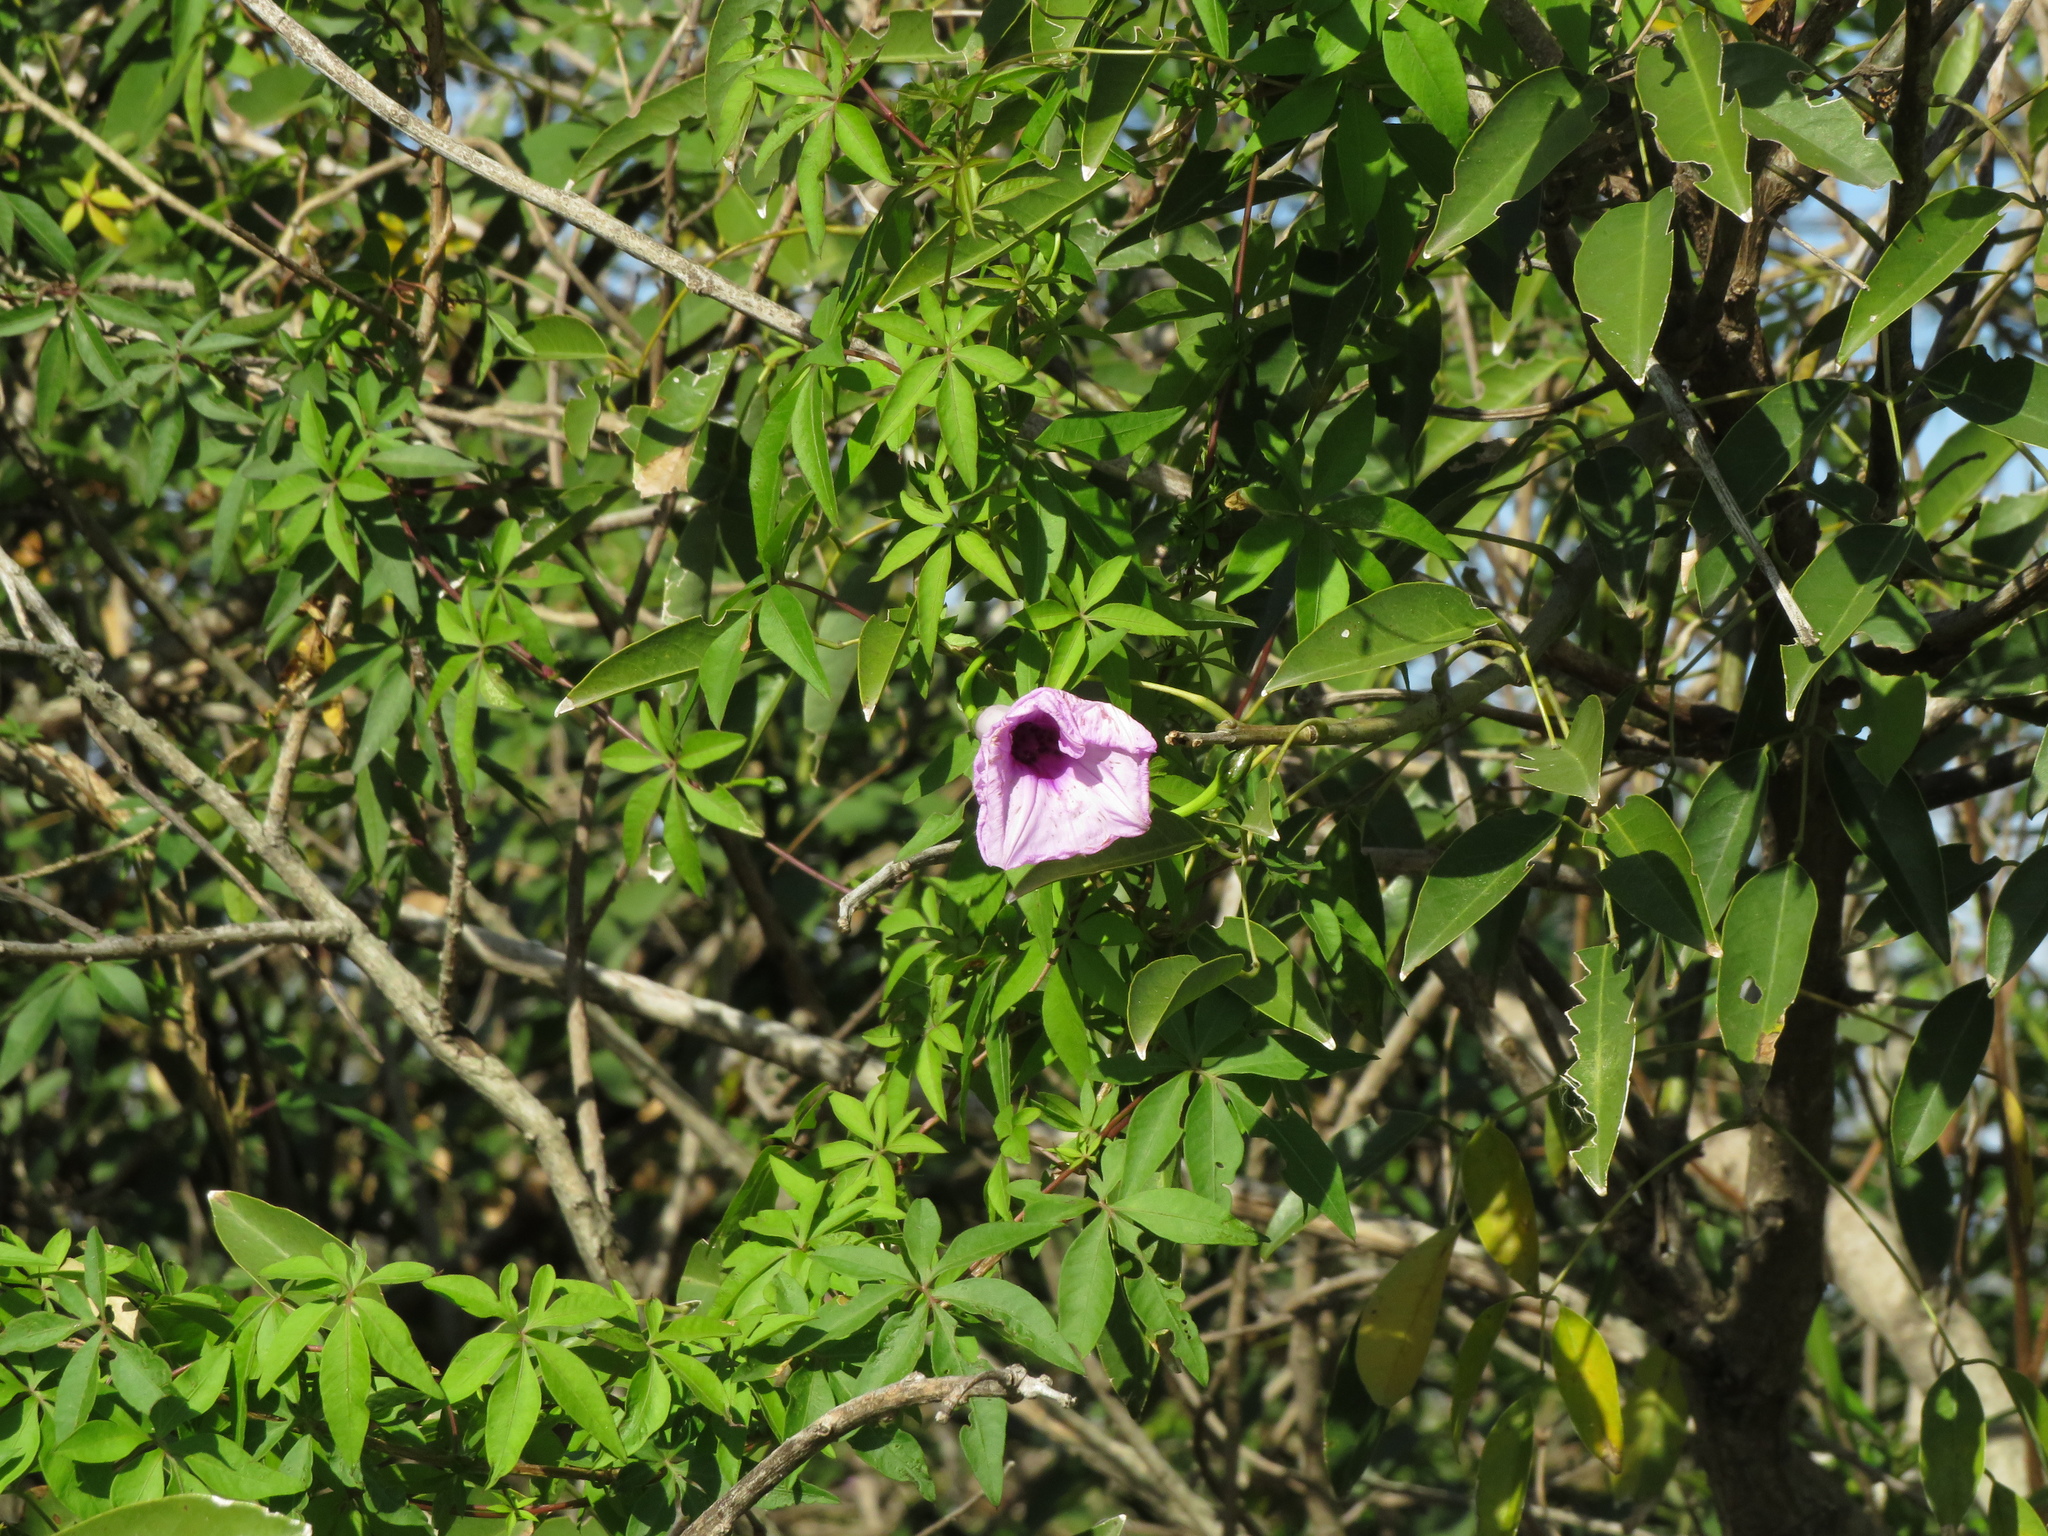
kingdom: Plantae
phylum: Tracheophyta
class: Magnoliopsida
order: Solanales
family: Convolvulaceae
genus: Ipomoea
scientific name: Ipomoea cairica
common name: Mile a minute vine
